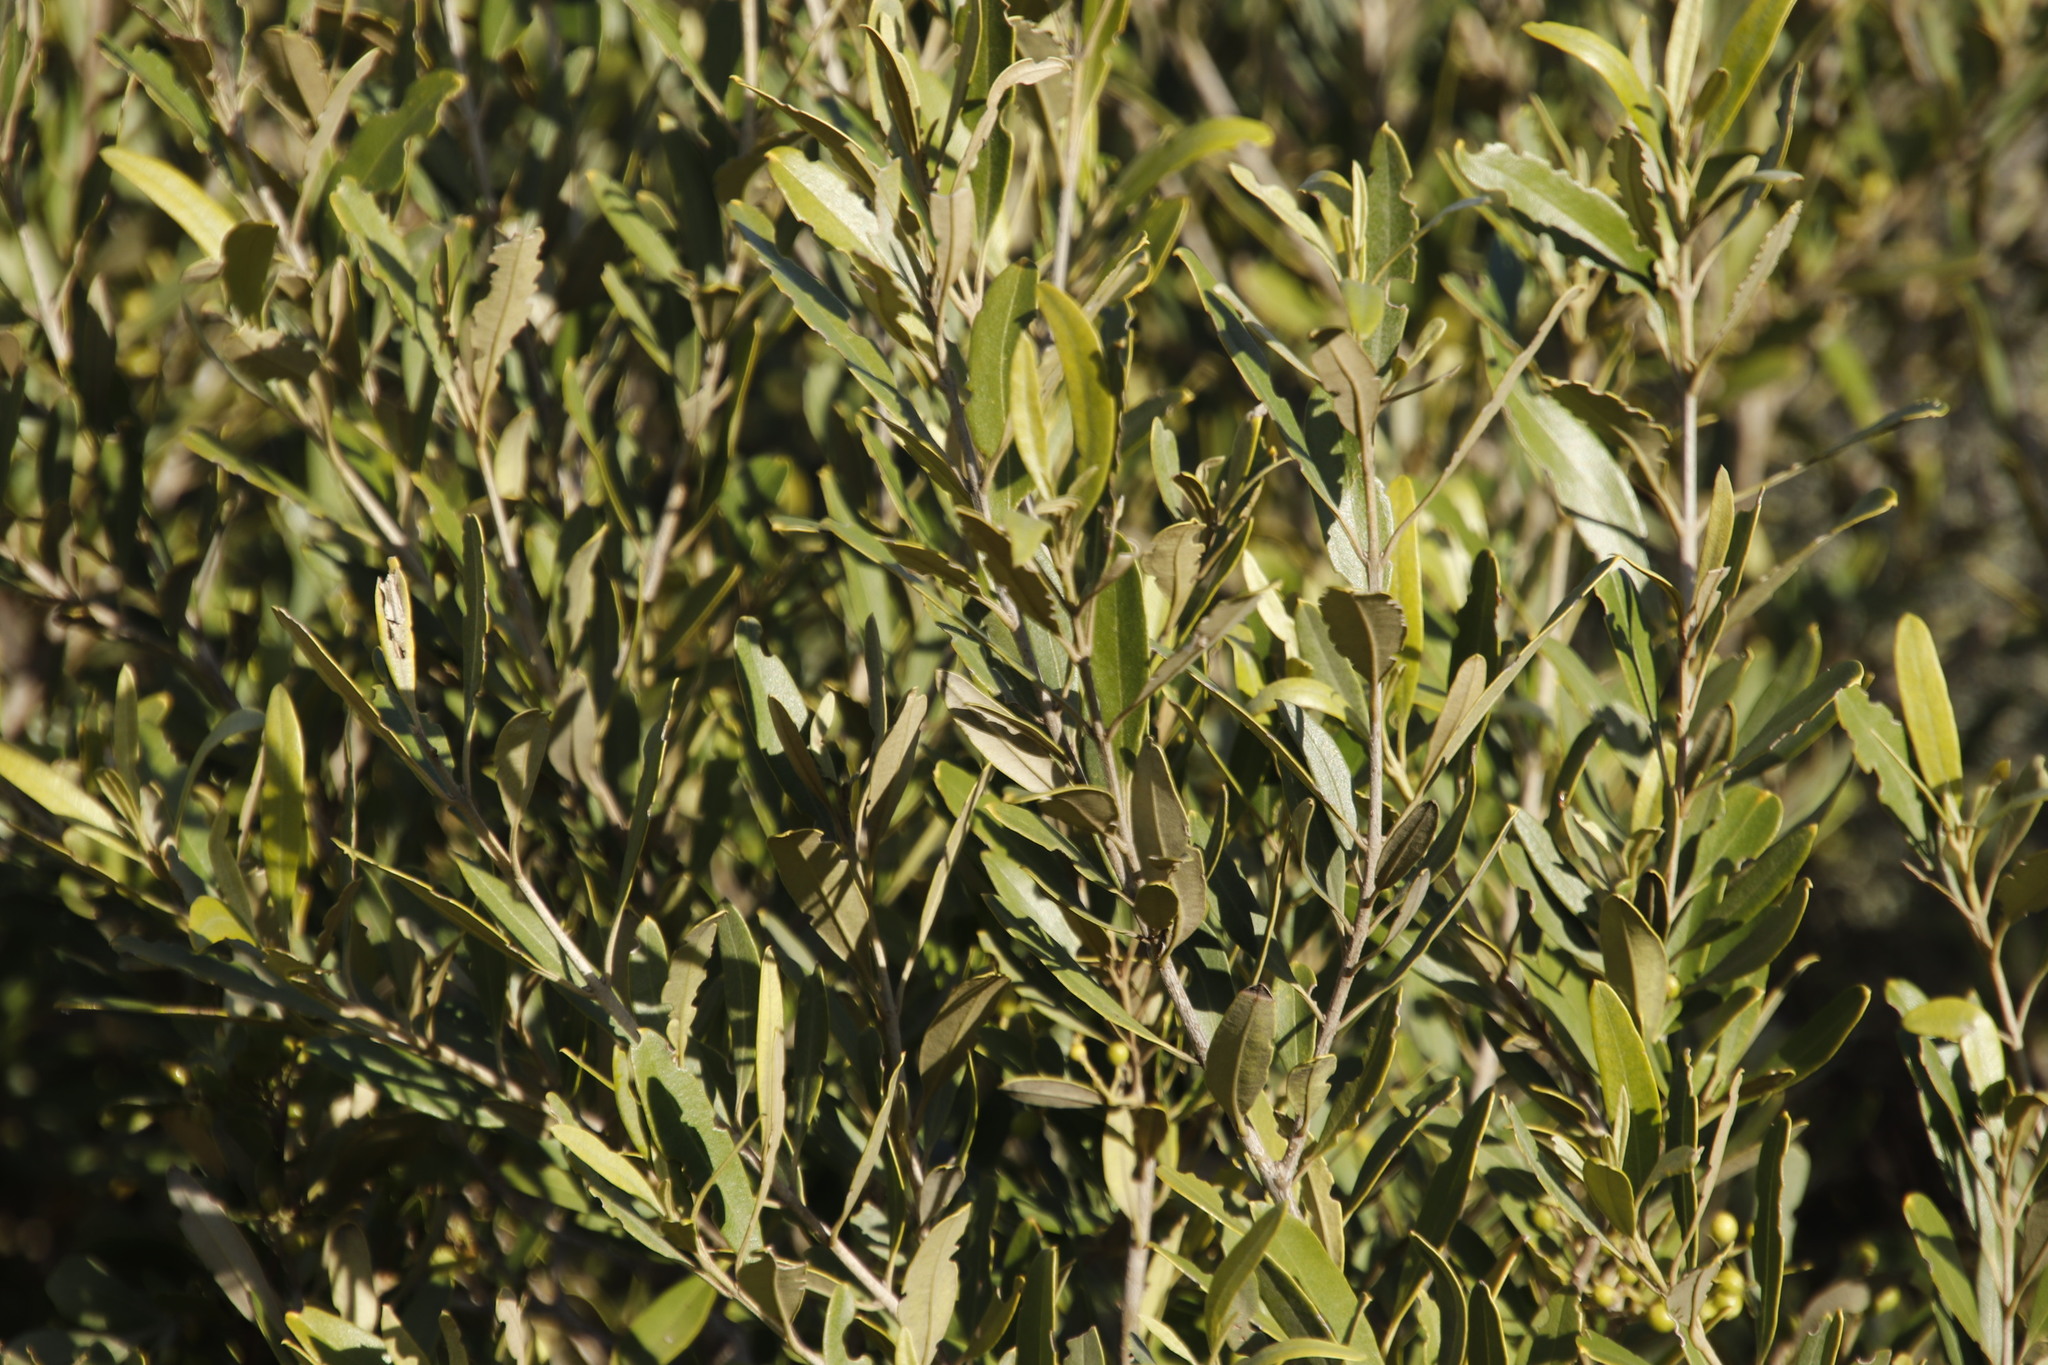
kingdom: Plantae
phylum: Tracheophyta
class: Magnoliopsida
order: Lamiales
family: Oleaceae
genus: Olea
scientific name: Olea europaea
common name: Olive
